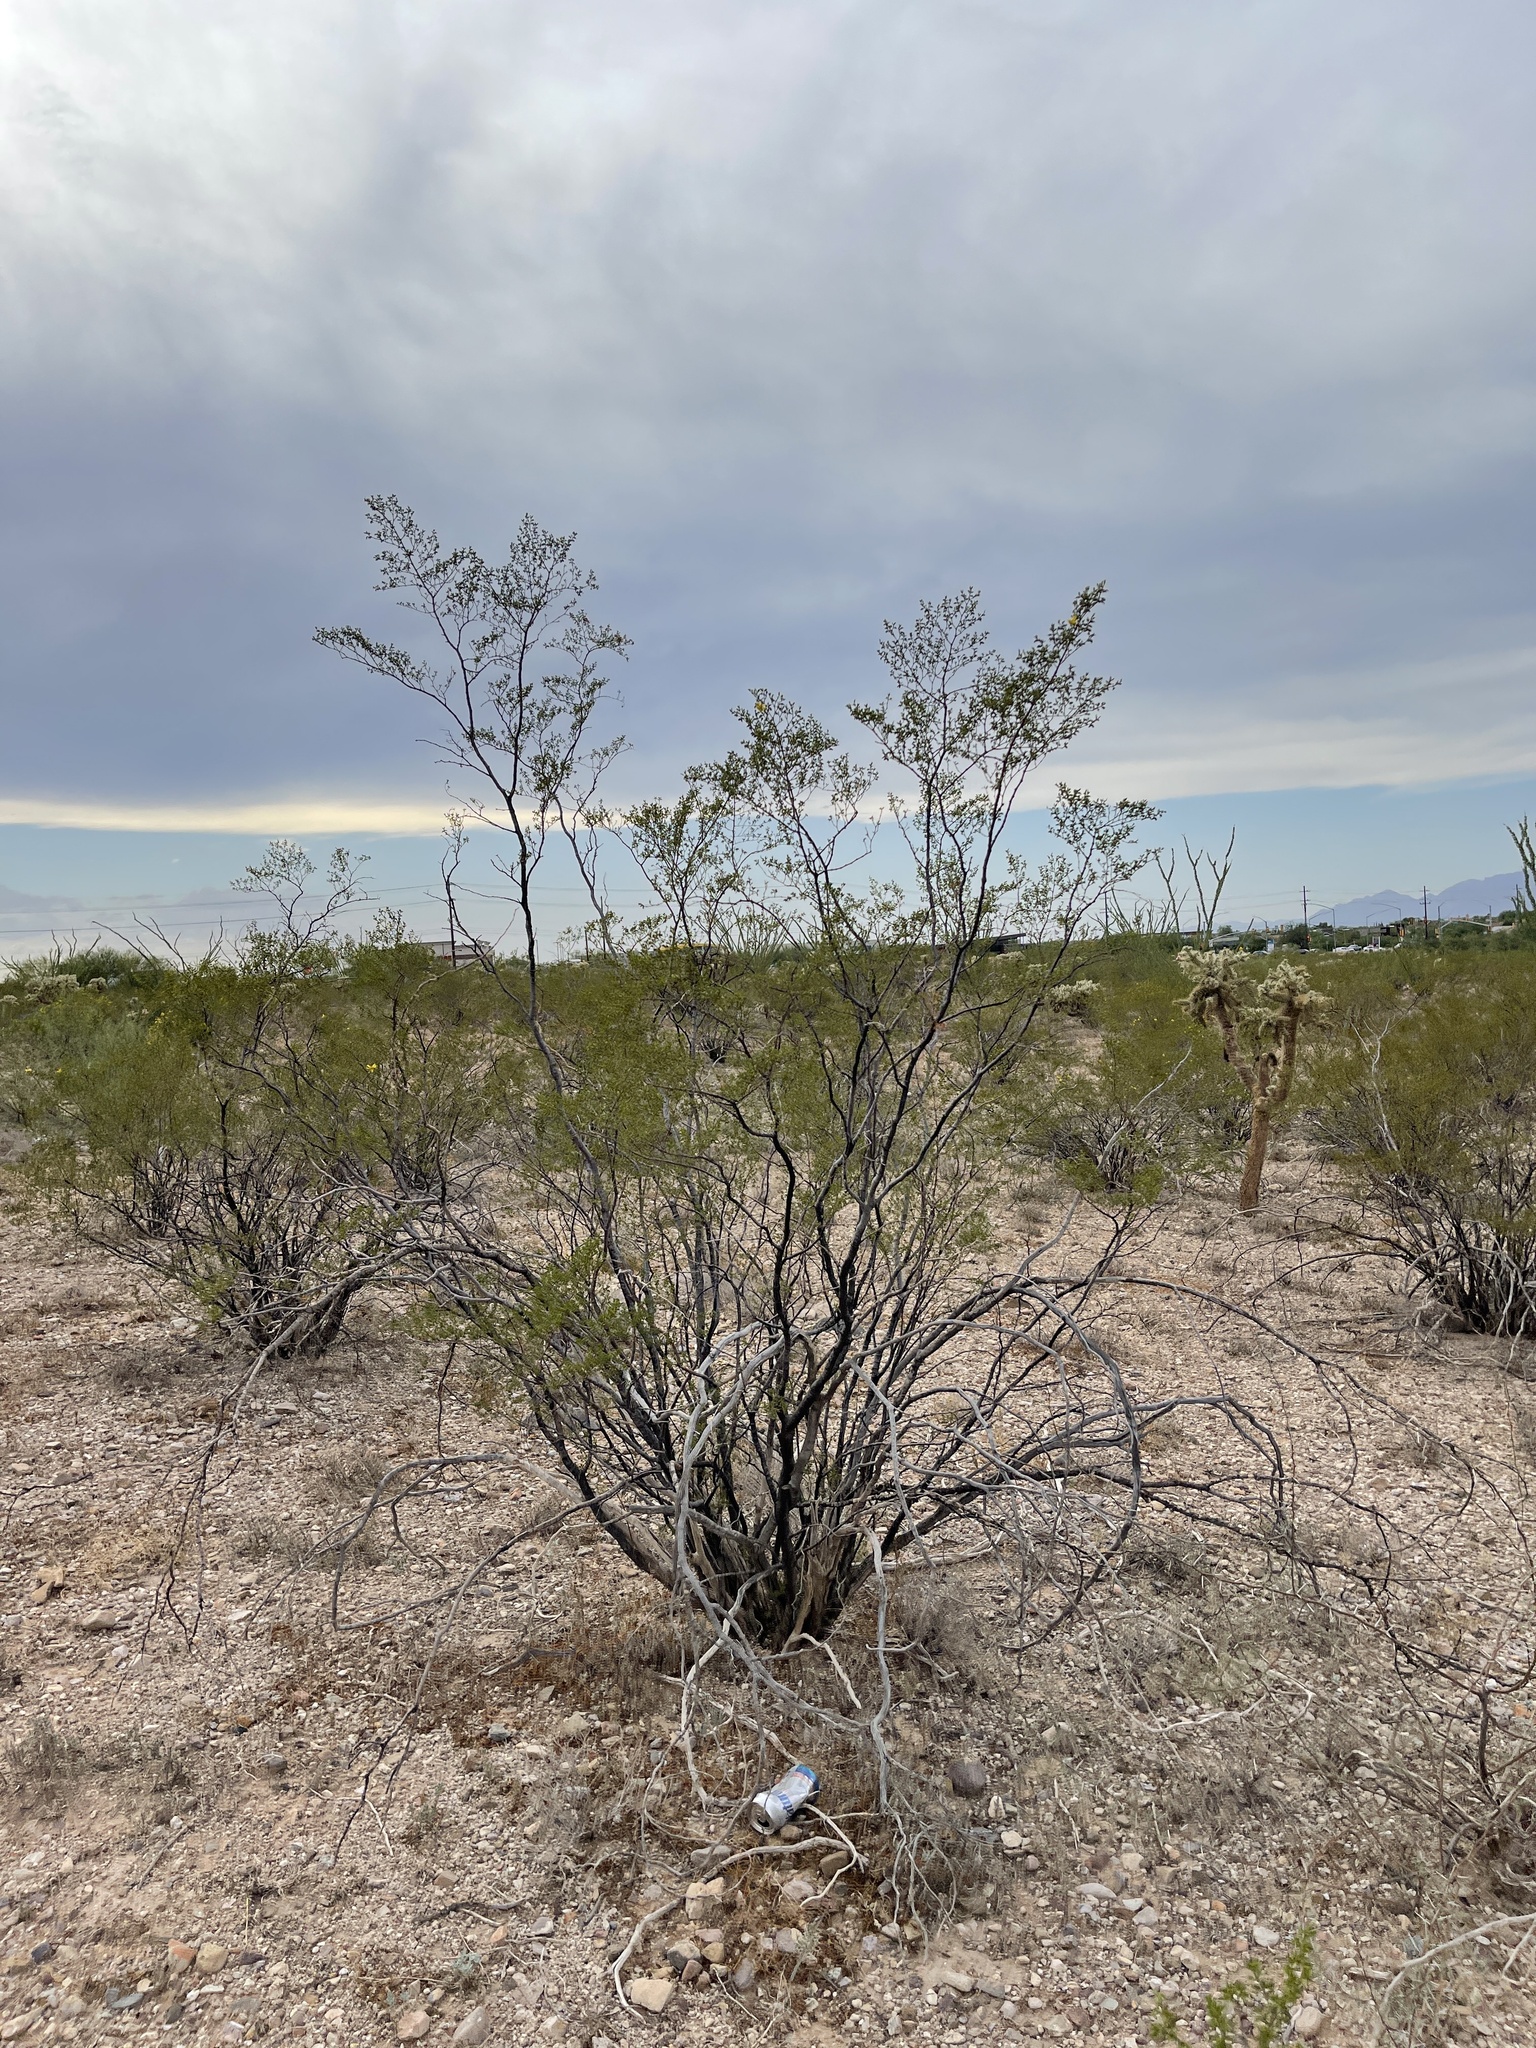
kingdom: Plantae
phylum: Tracheophyta
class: Magnoliopsida
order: Zygophyllales
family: Zygophyllaceae
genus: Larrea
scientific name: Larrea tridentata
